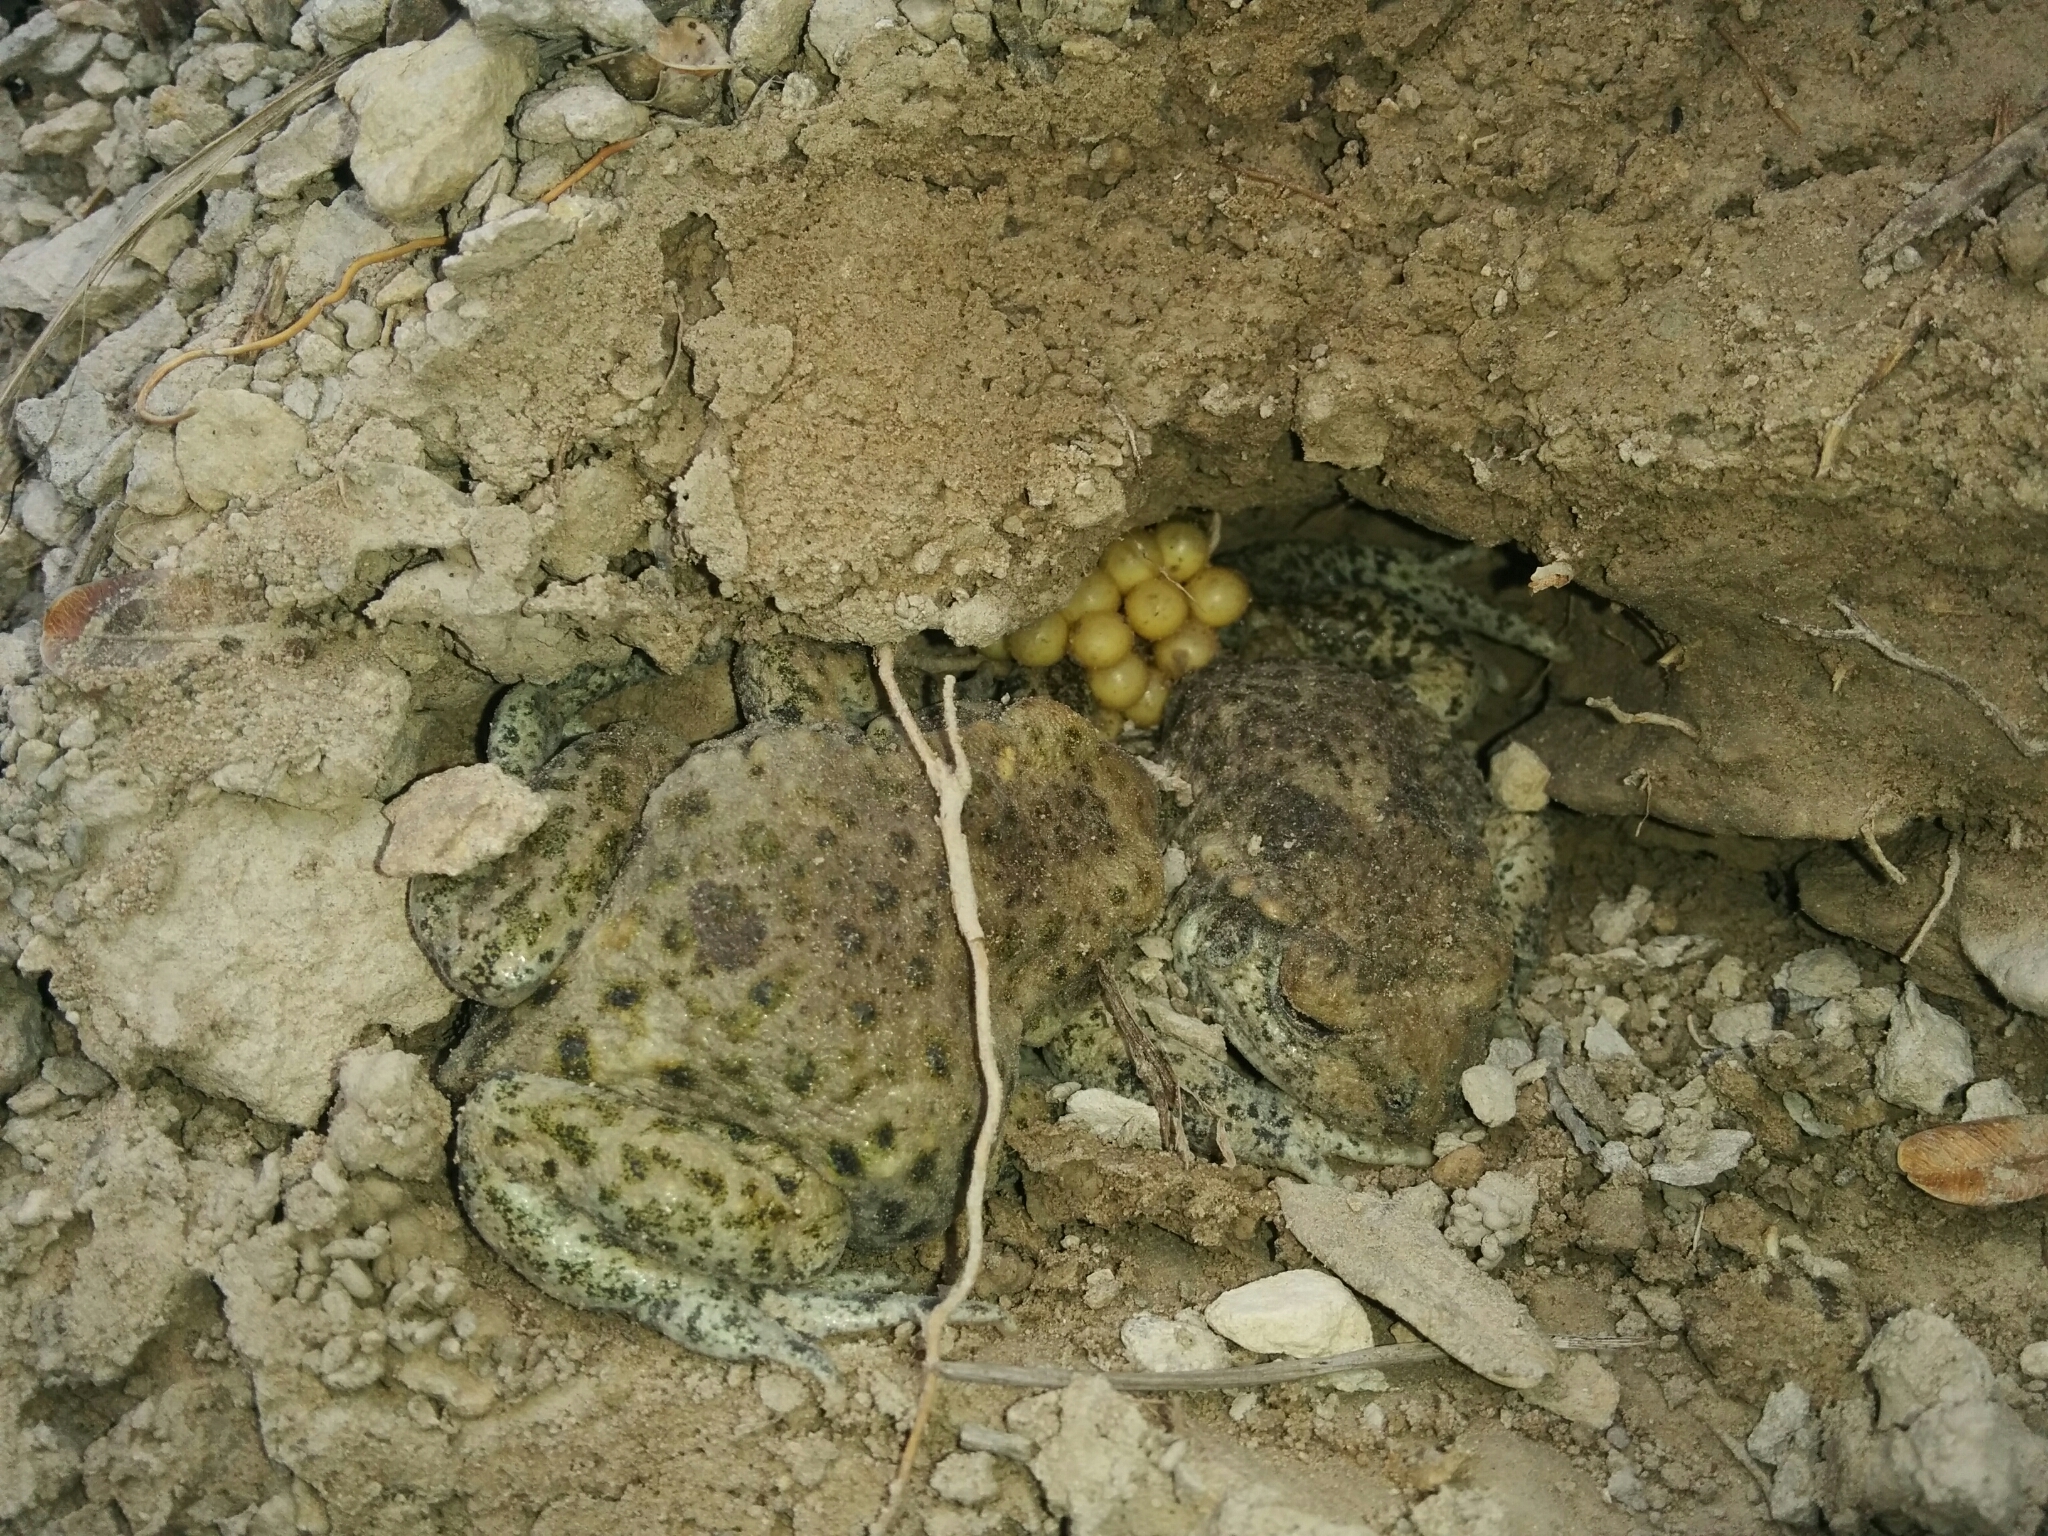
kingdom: Animalia
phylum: Chordata
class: Amphibia
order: Anura
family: Alytidae
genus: Alytes
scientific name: Alytes obstetricans
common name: Midwife toad
